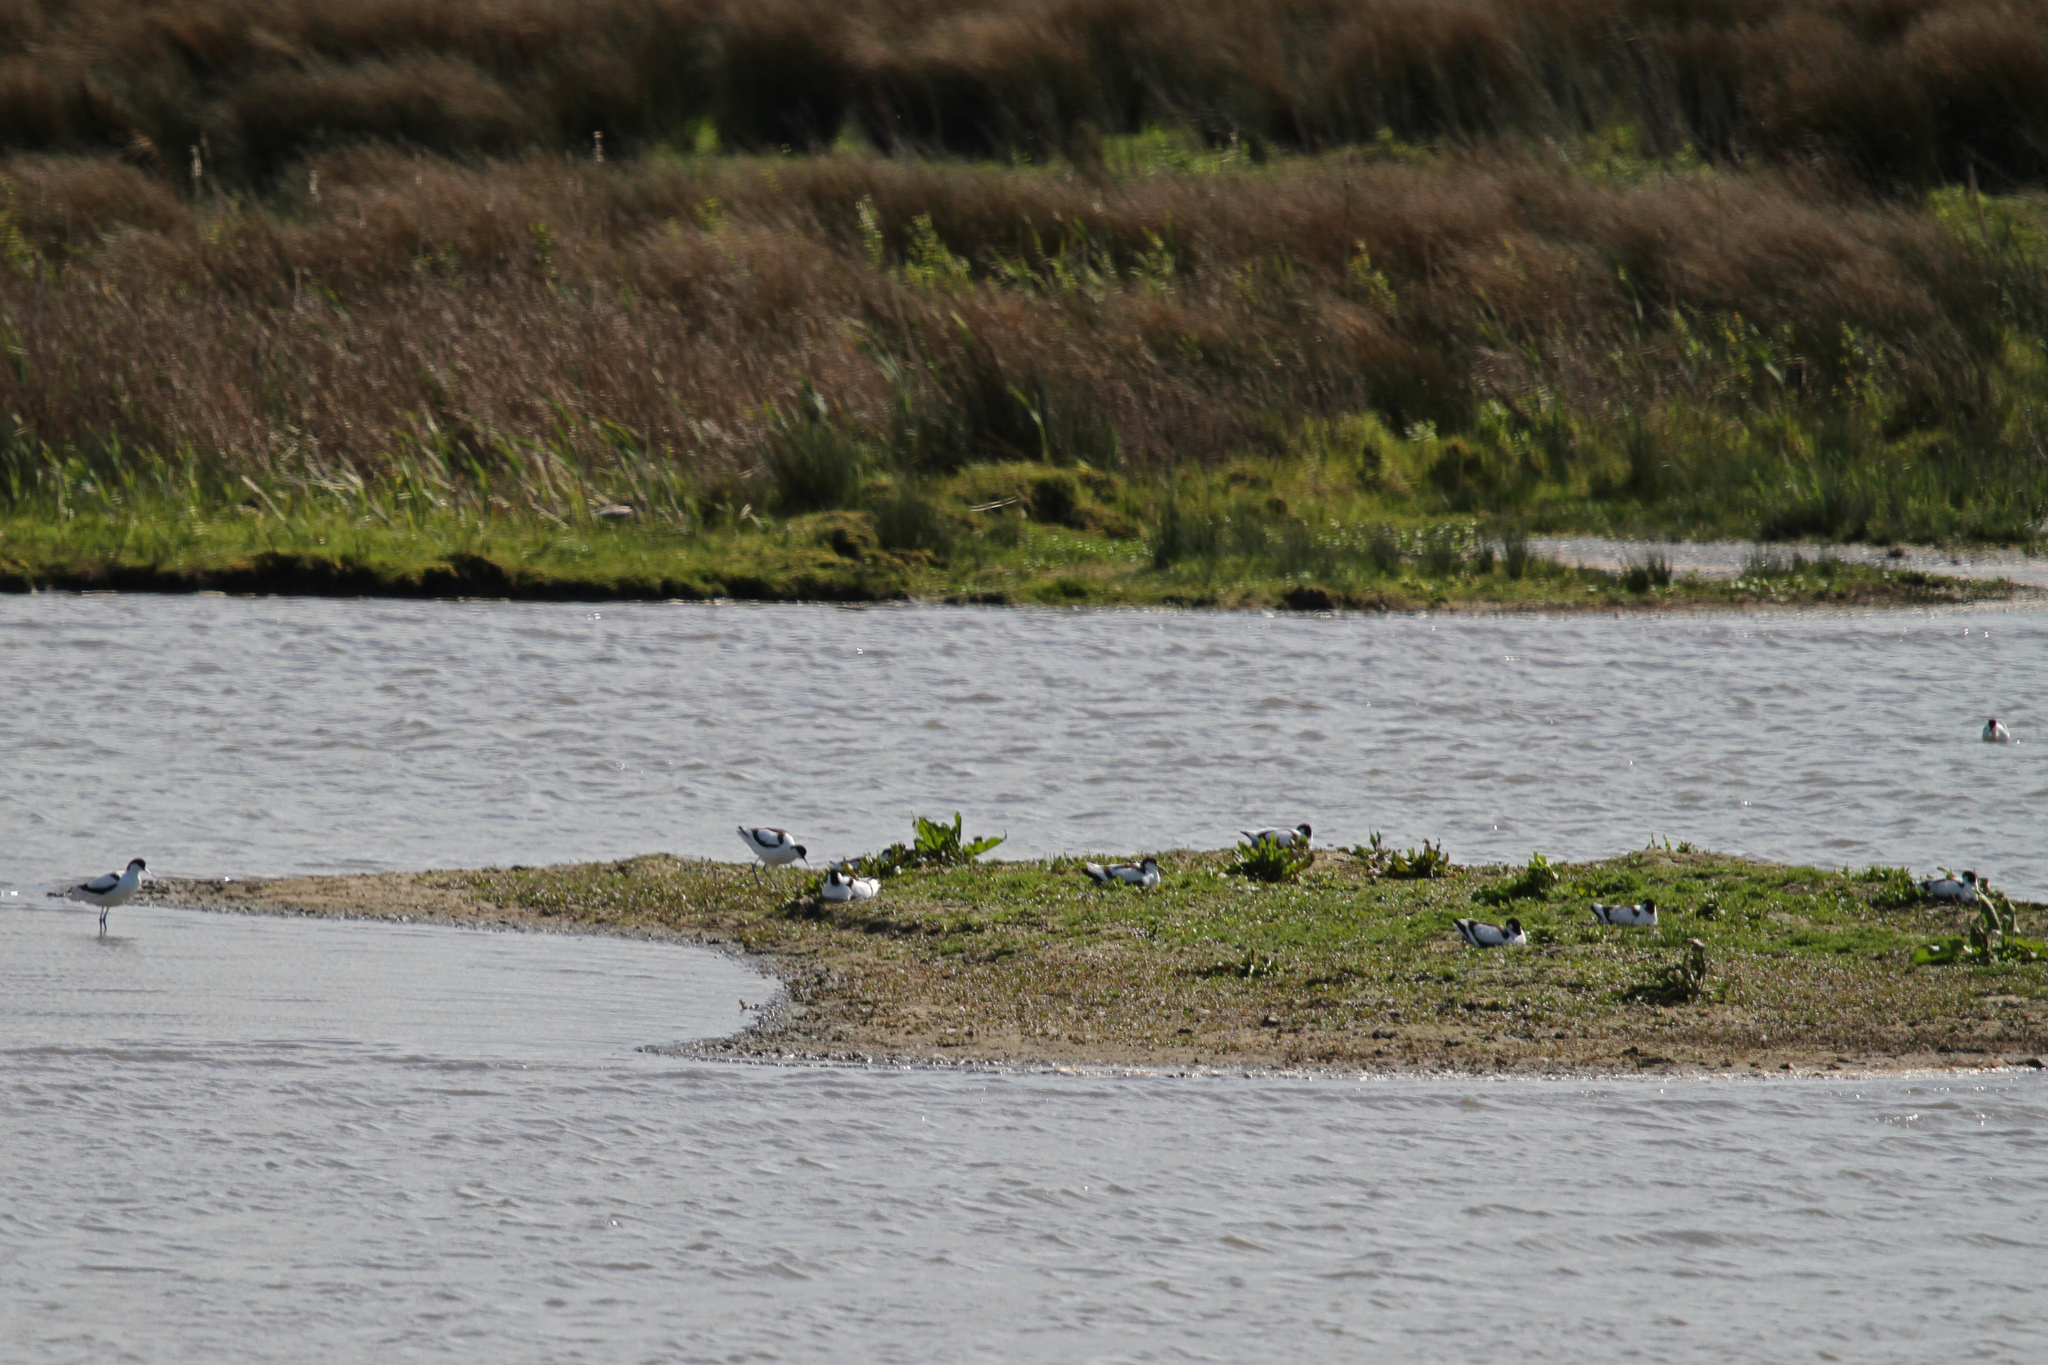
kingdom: Animalia
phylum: Chordata
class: Aves
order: Charadriiformes
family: Recurvirostridae
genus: Recurvirostra
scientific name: Recurvirostra avosetta
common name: Pied avocet
